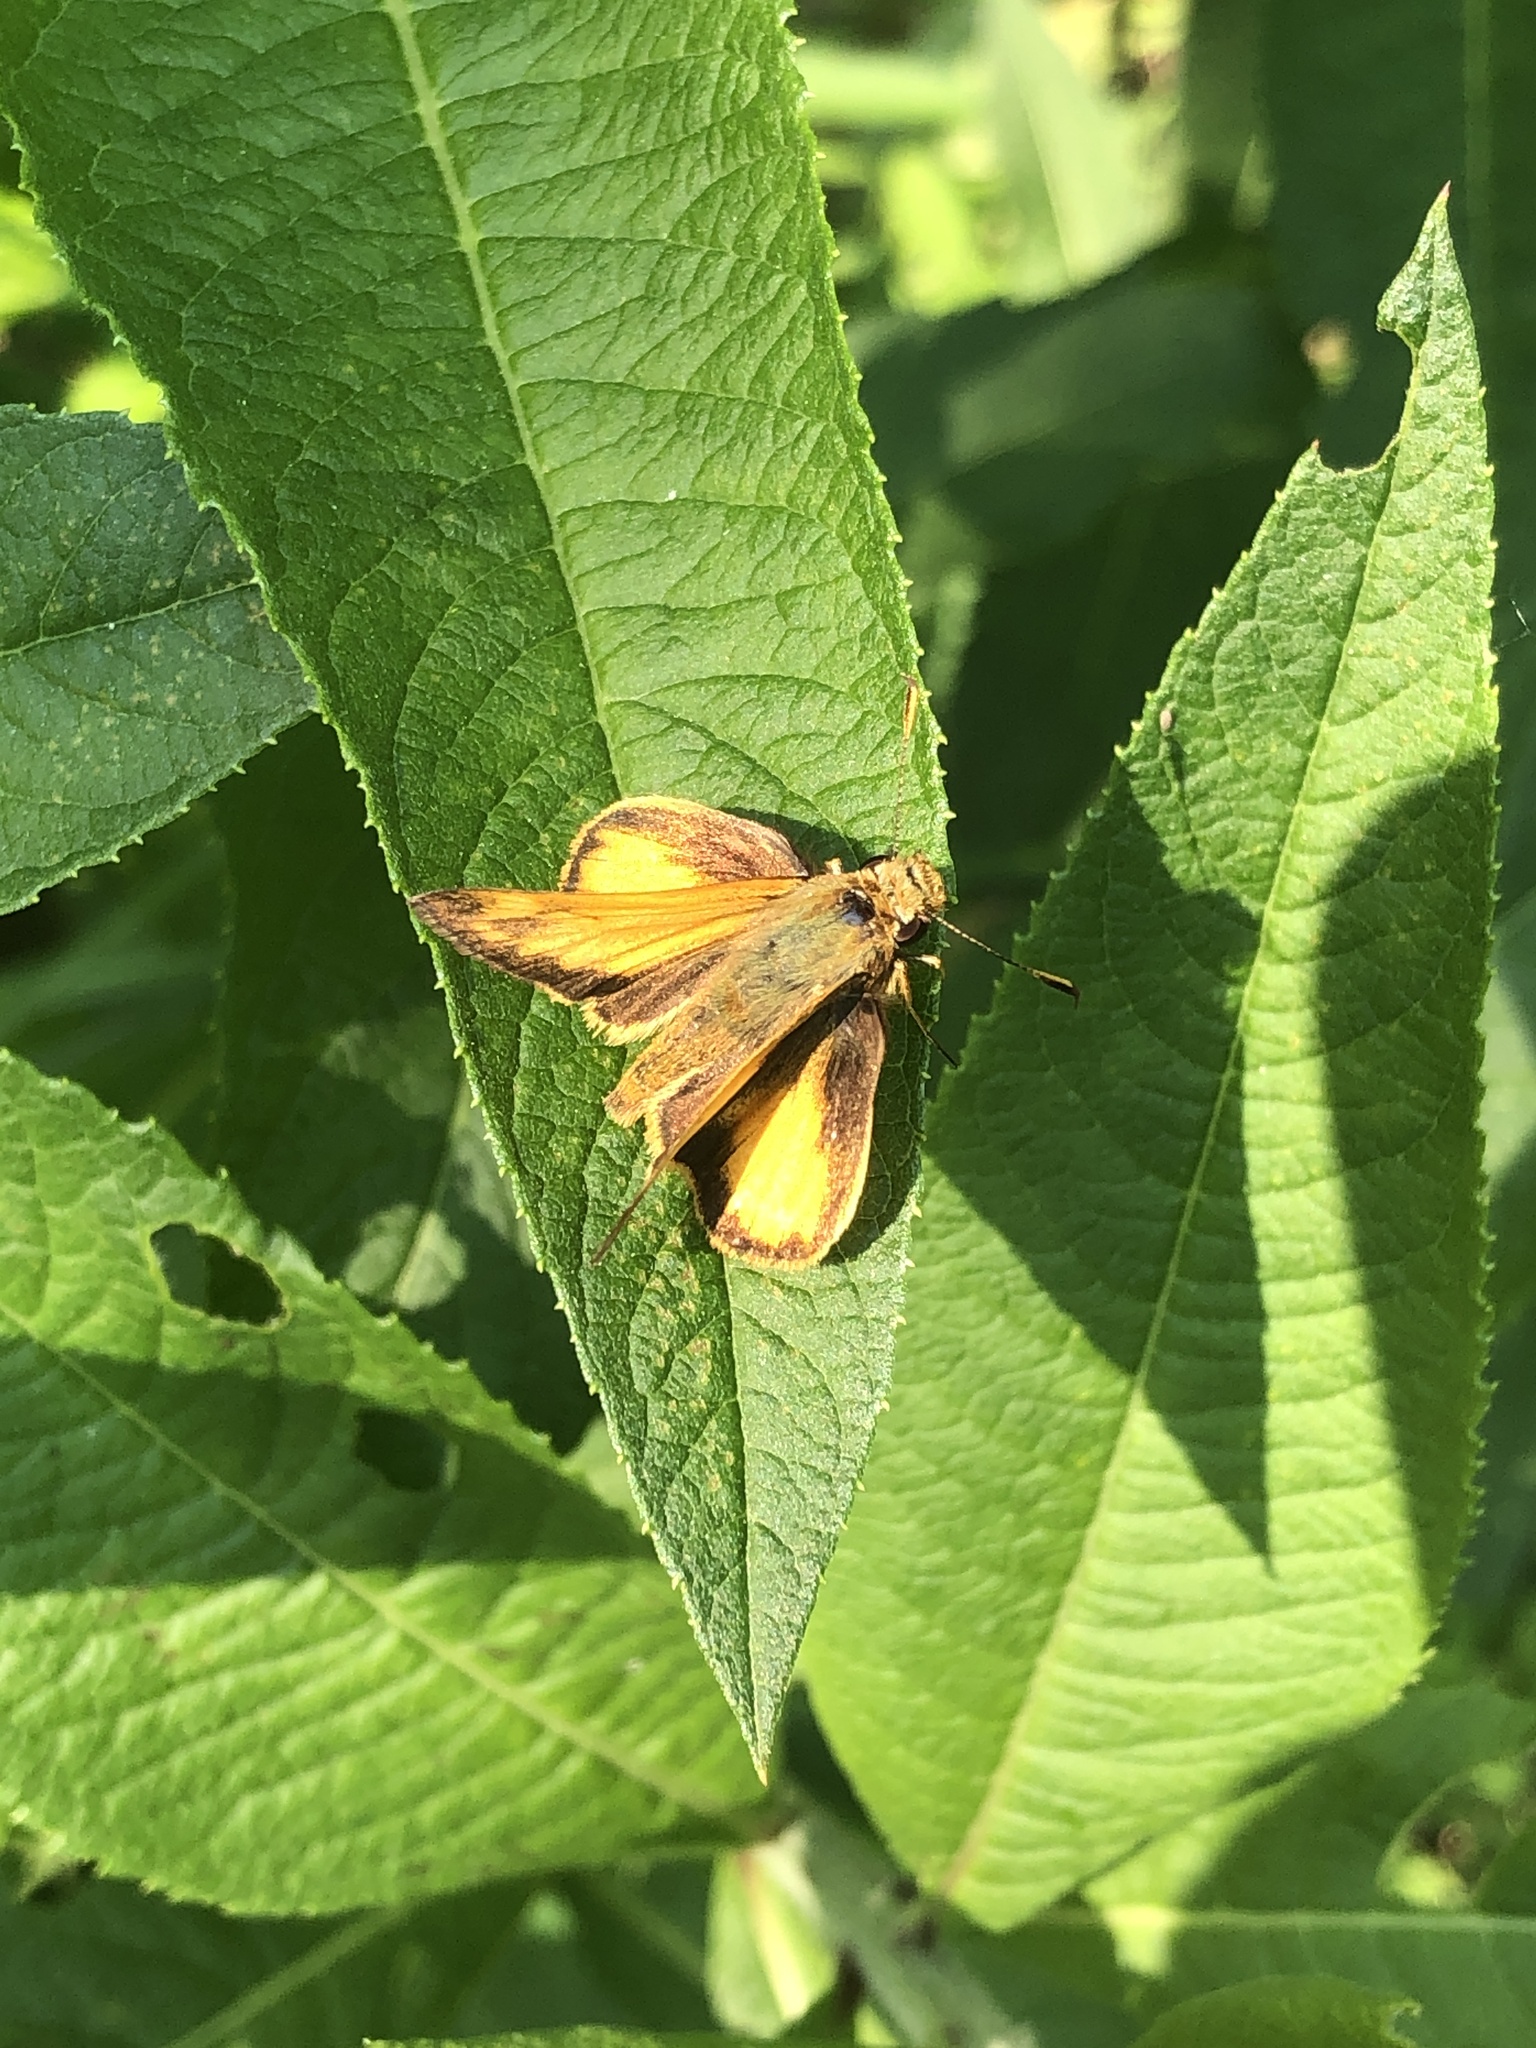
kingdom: Animalia
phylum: Arthropoda
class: Insecta
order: Lepidoptera
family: Hesperiidae
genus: Lon
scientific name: Lon zabulon
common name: Zabulon skipper
